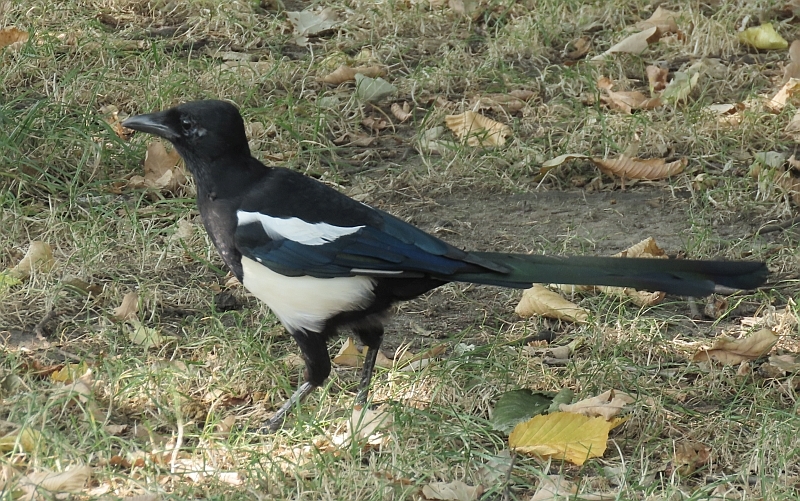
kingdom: Animalia
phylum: Chordata
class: Aves
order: Passeriformes
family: Corvidae
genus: Pica
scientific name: Pica pica
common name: Eurasian magpie
